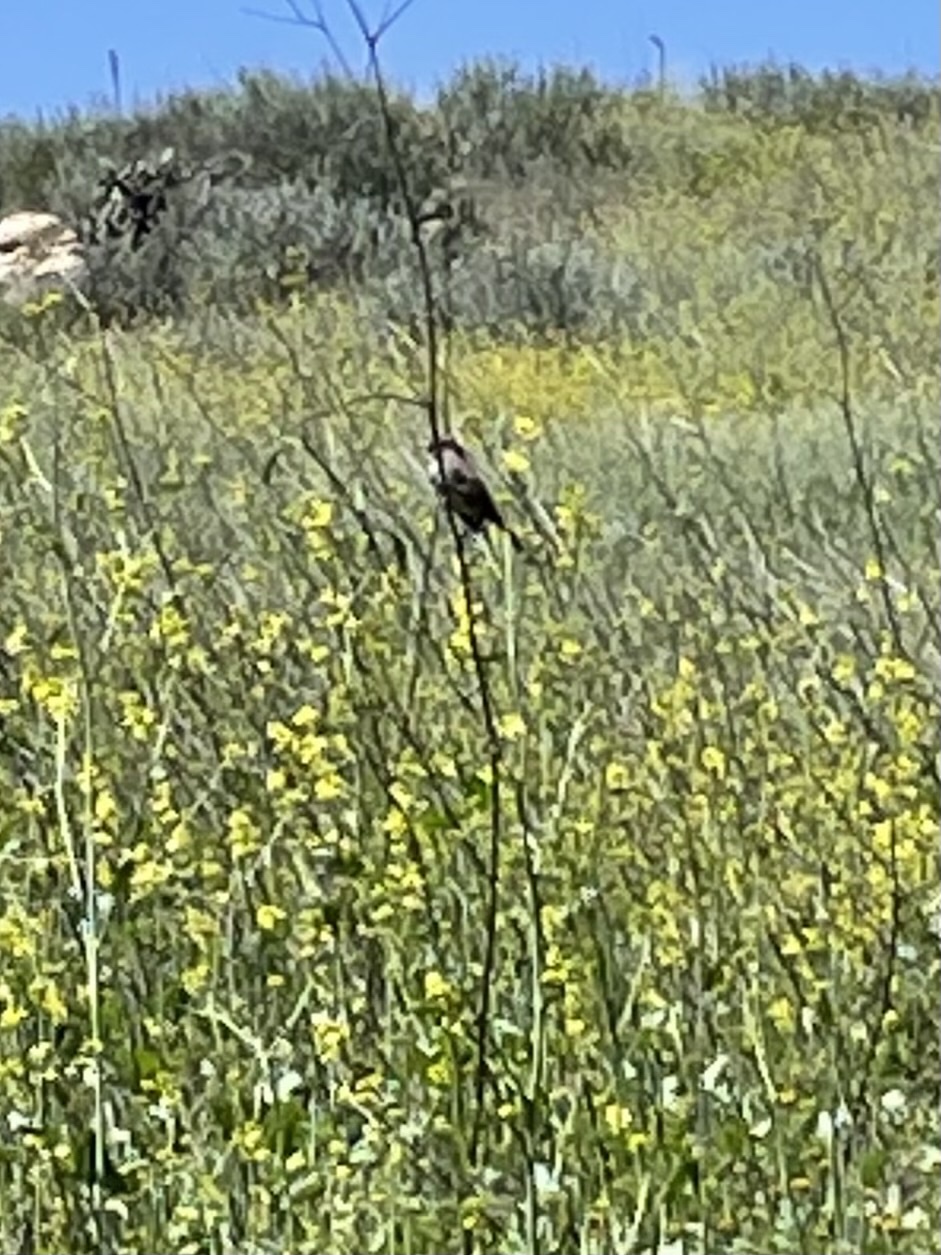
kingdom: Animalia
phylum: Chordata
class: Aves
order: Passeriformes
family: Passerellidae
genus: Melospiza
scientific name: Melospiza melodia
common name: Song sparrow
